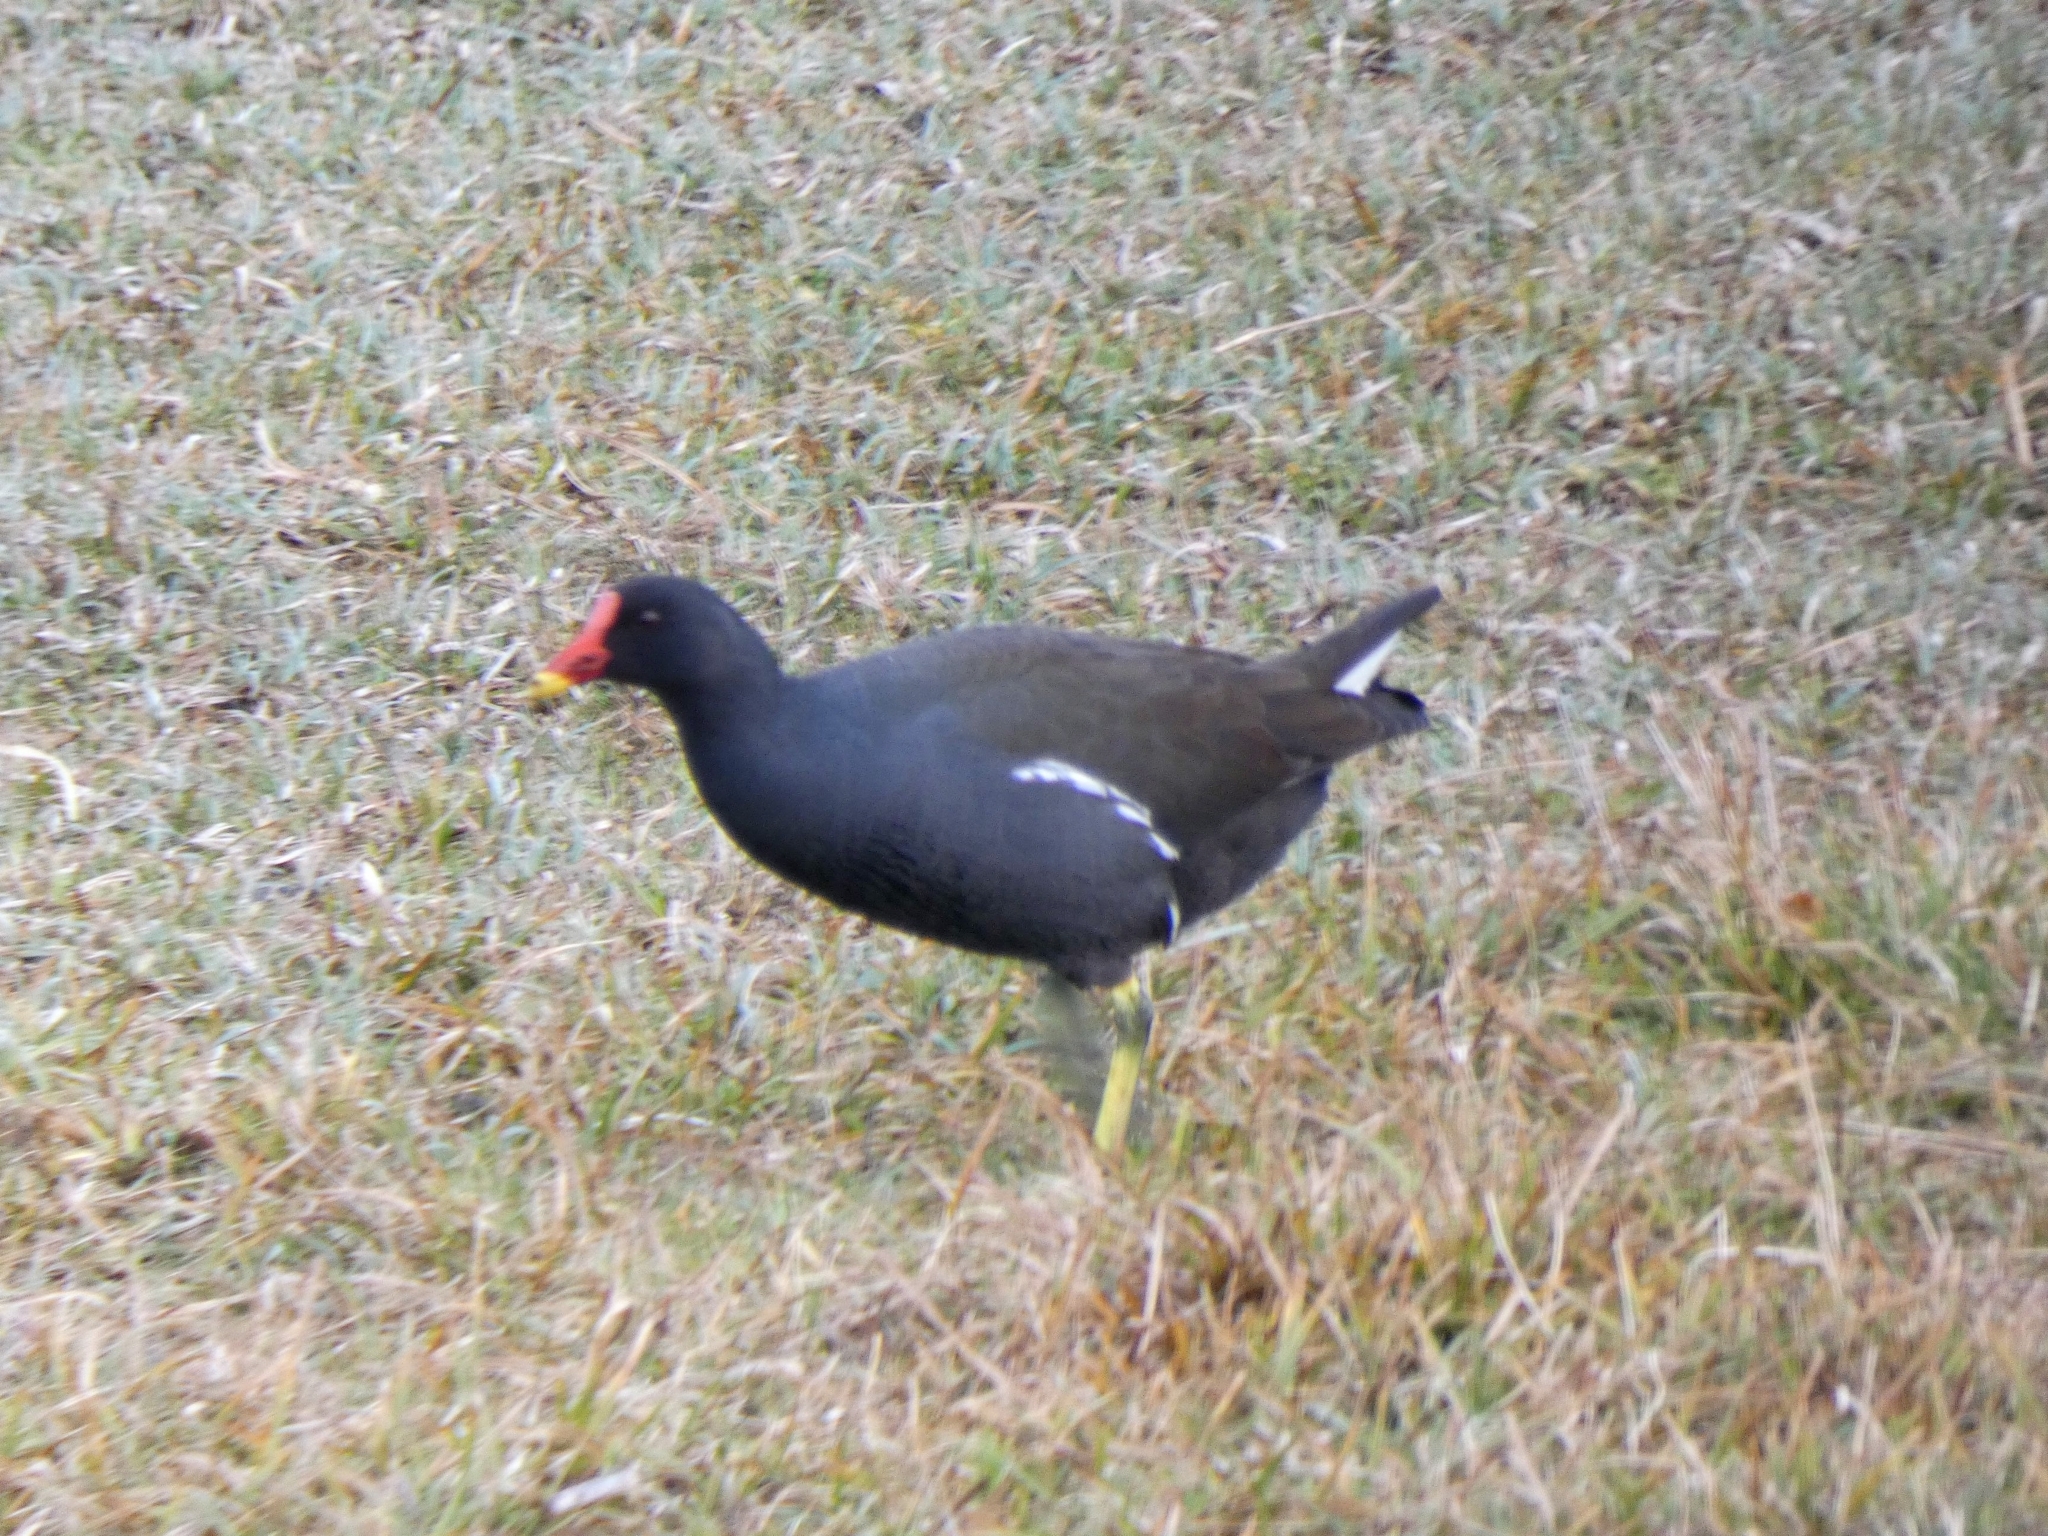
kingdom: Animalia
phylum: Chordata
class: Aves
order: Gruiformes
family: Rallidae
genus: Gallinula
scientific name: Gallinula chloropus
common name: Common moorhen
